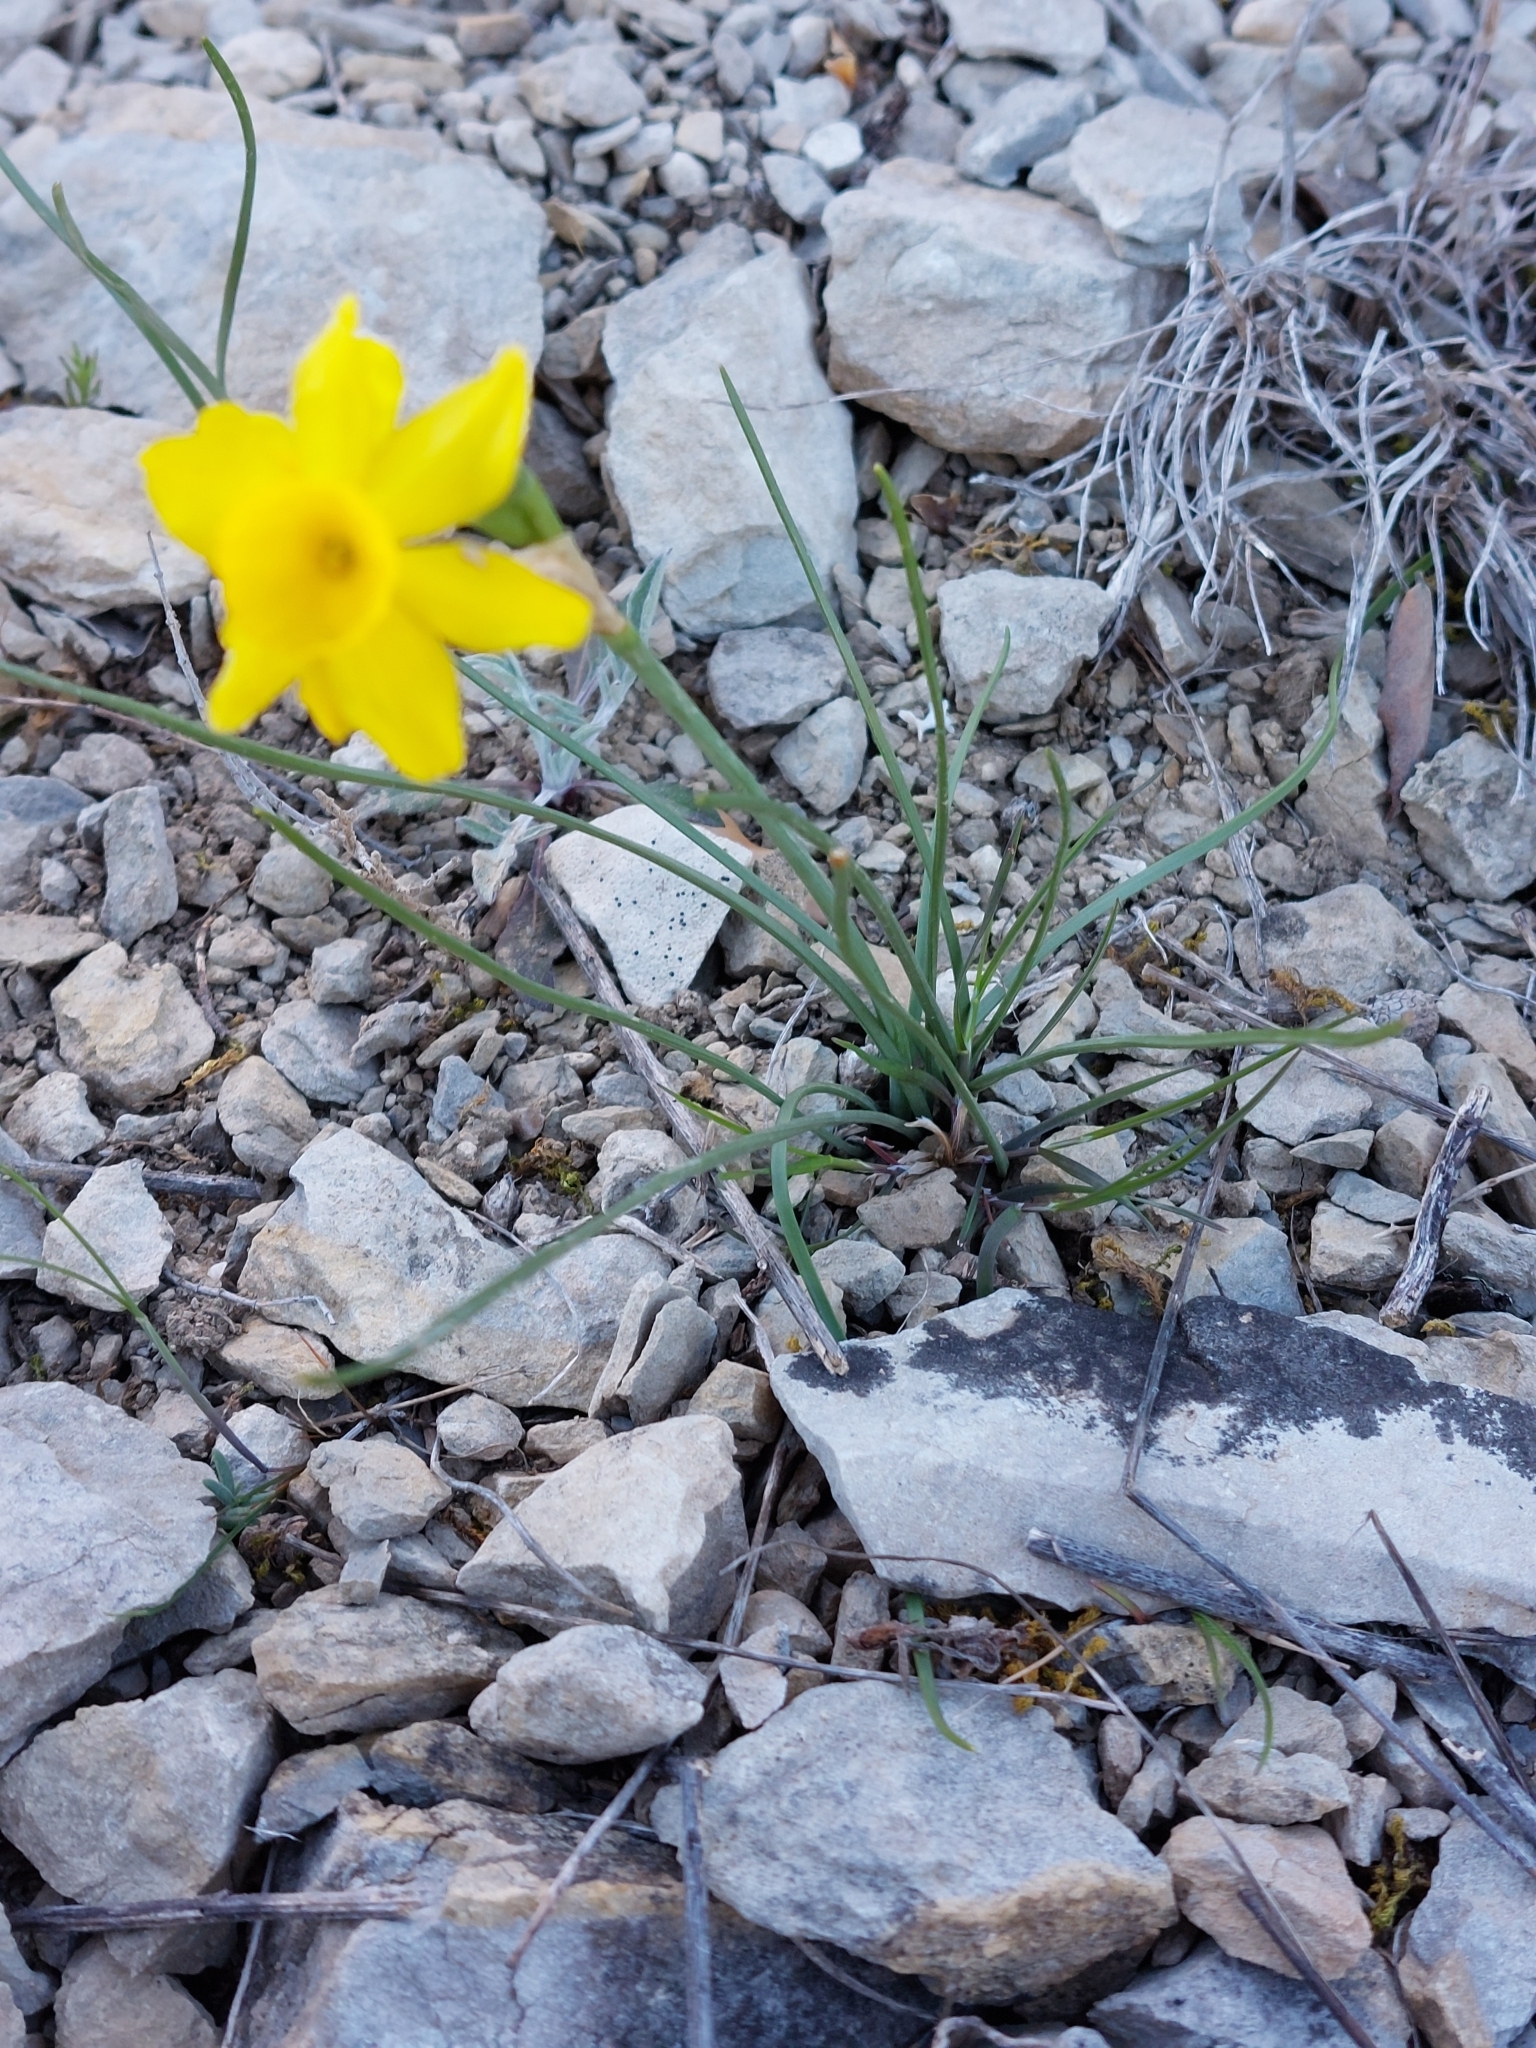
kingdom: Plantae
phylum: Tracheophyta
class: Liliopsida
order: Asparagales
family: Amaryllidaceae
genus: Narcissus
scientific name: Narcissus assoanus
